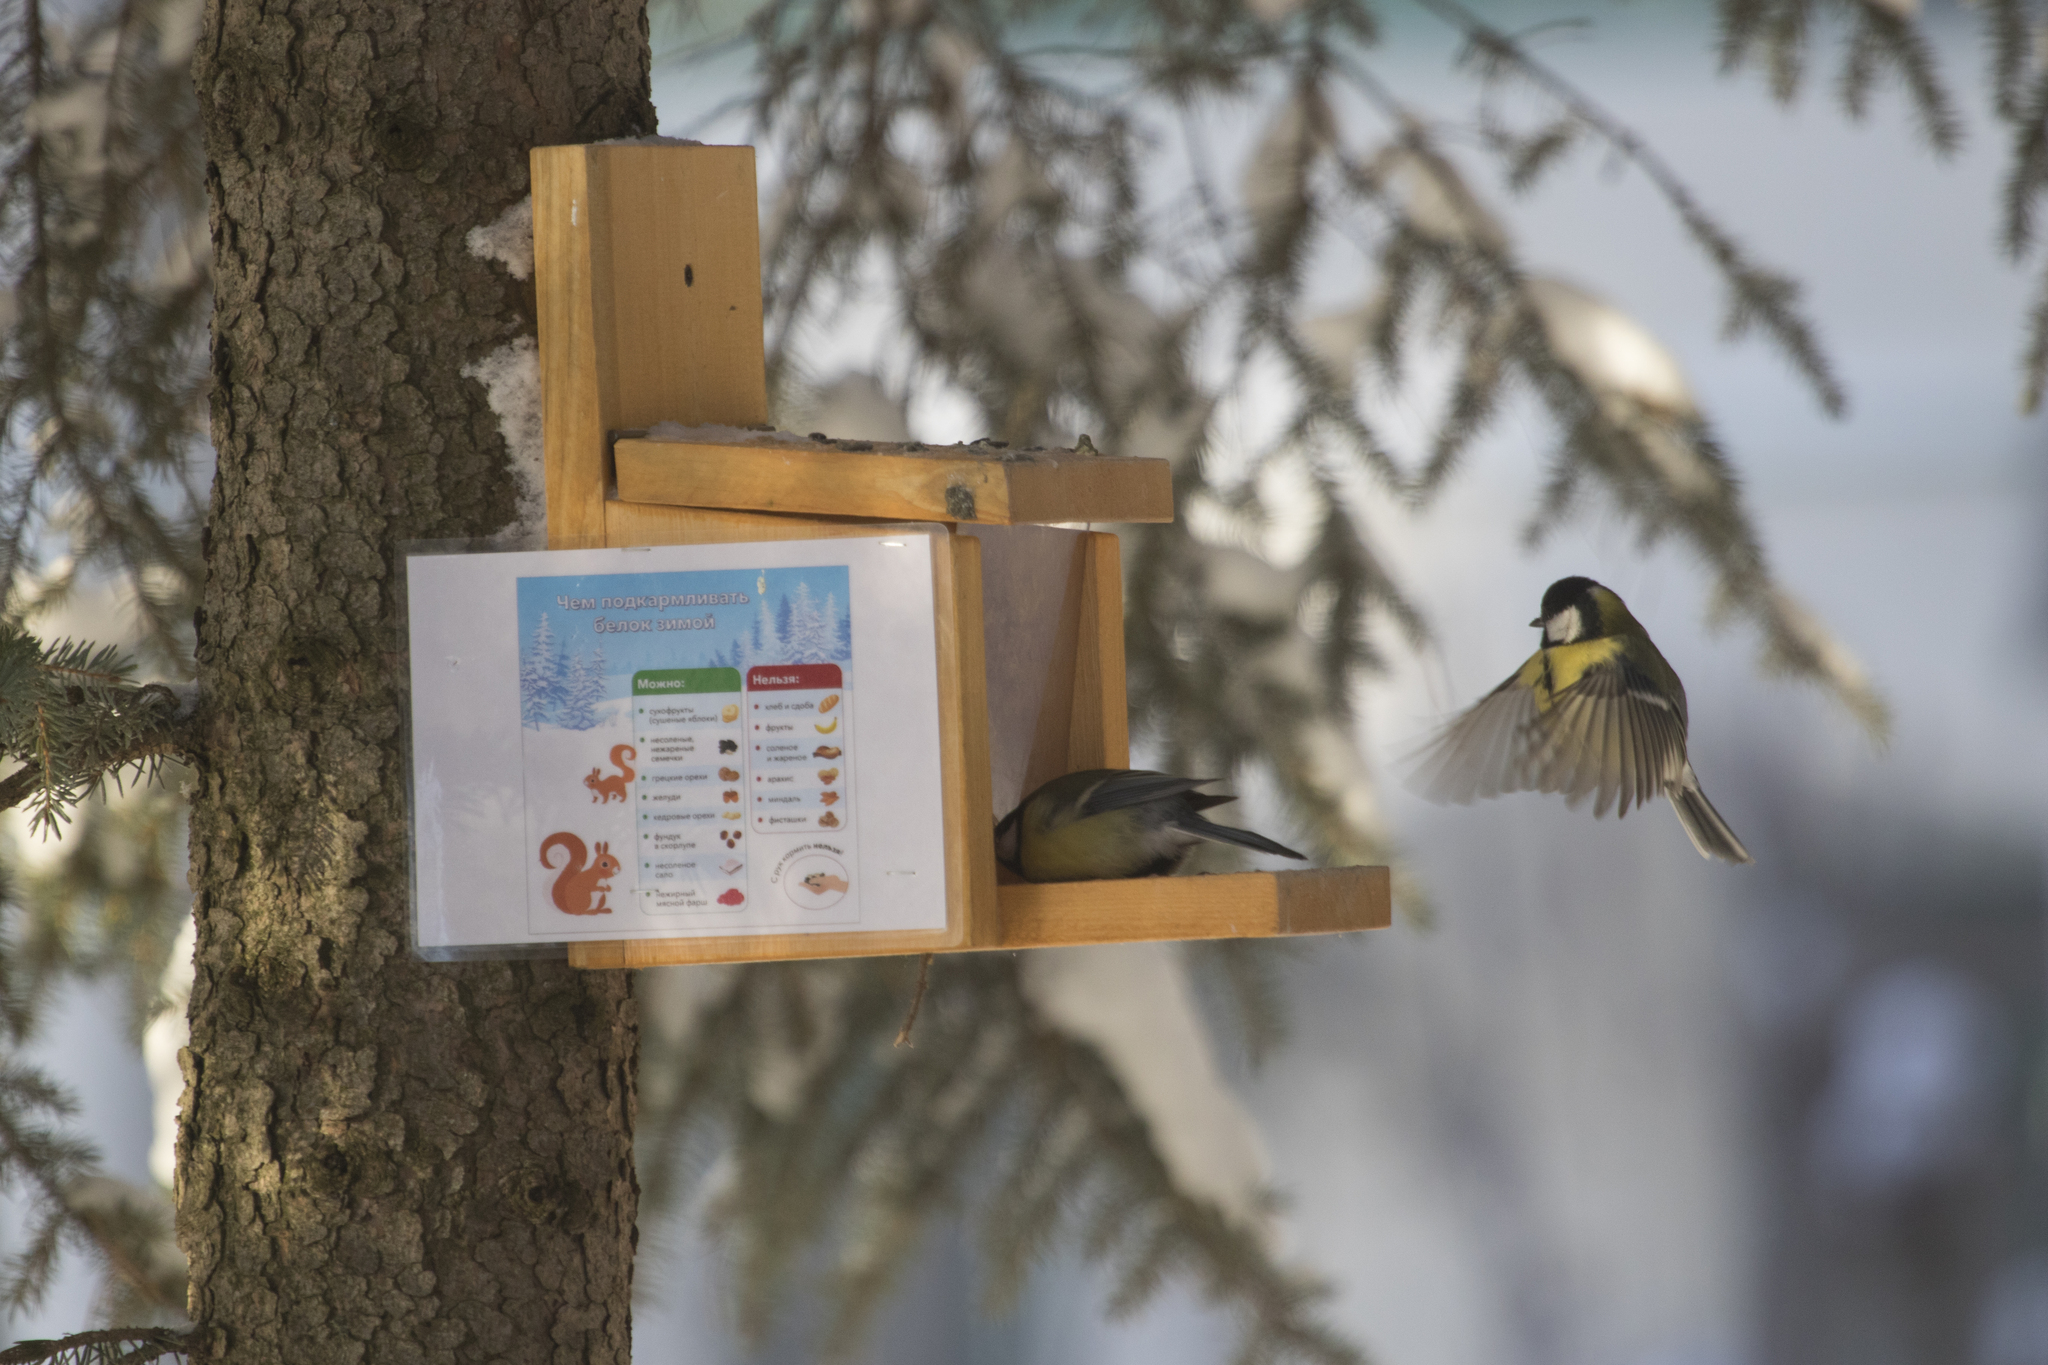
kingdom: Animalia
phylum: Chordata
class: Aves
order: Passeriformes
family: Paridae
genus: Parus
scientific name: Parus major
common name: Great tit
